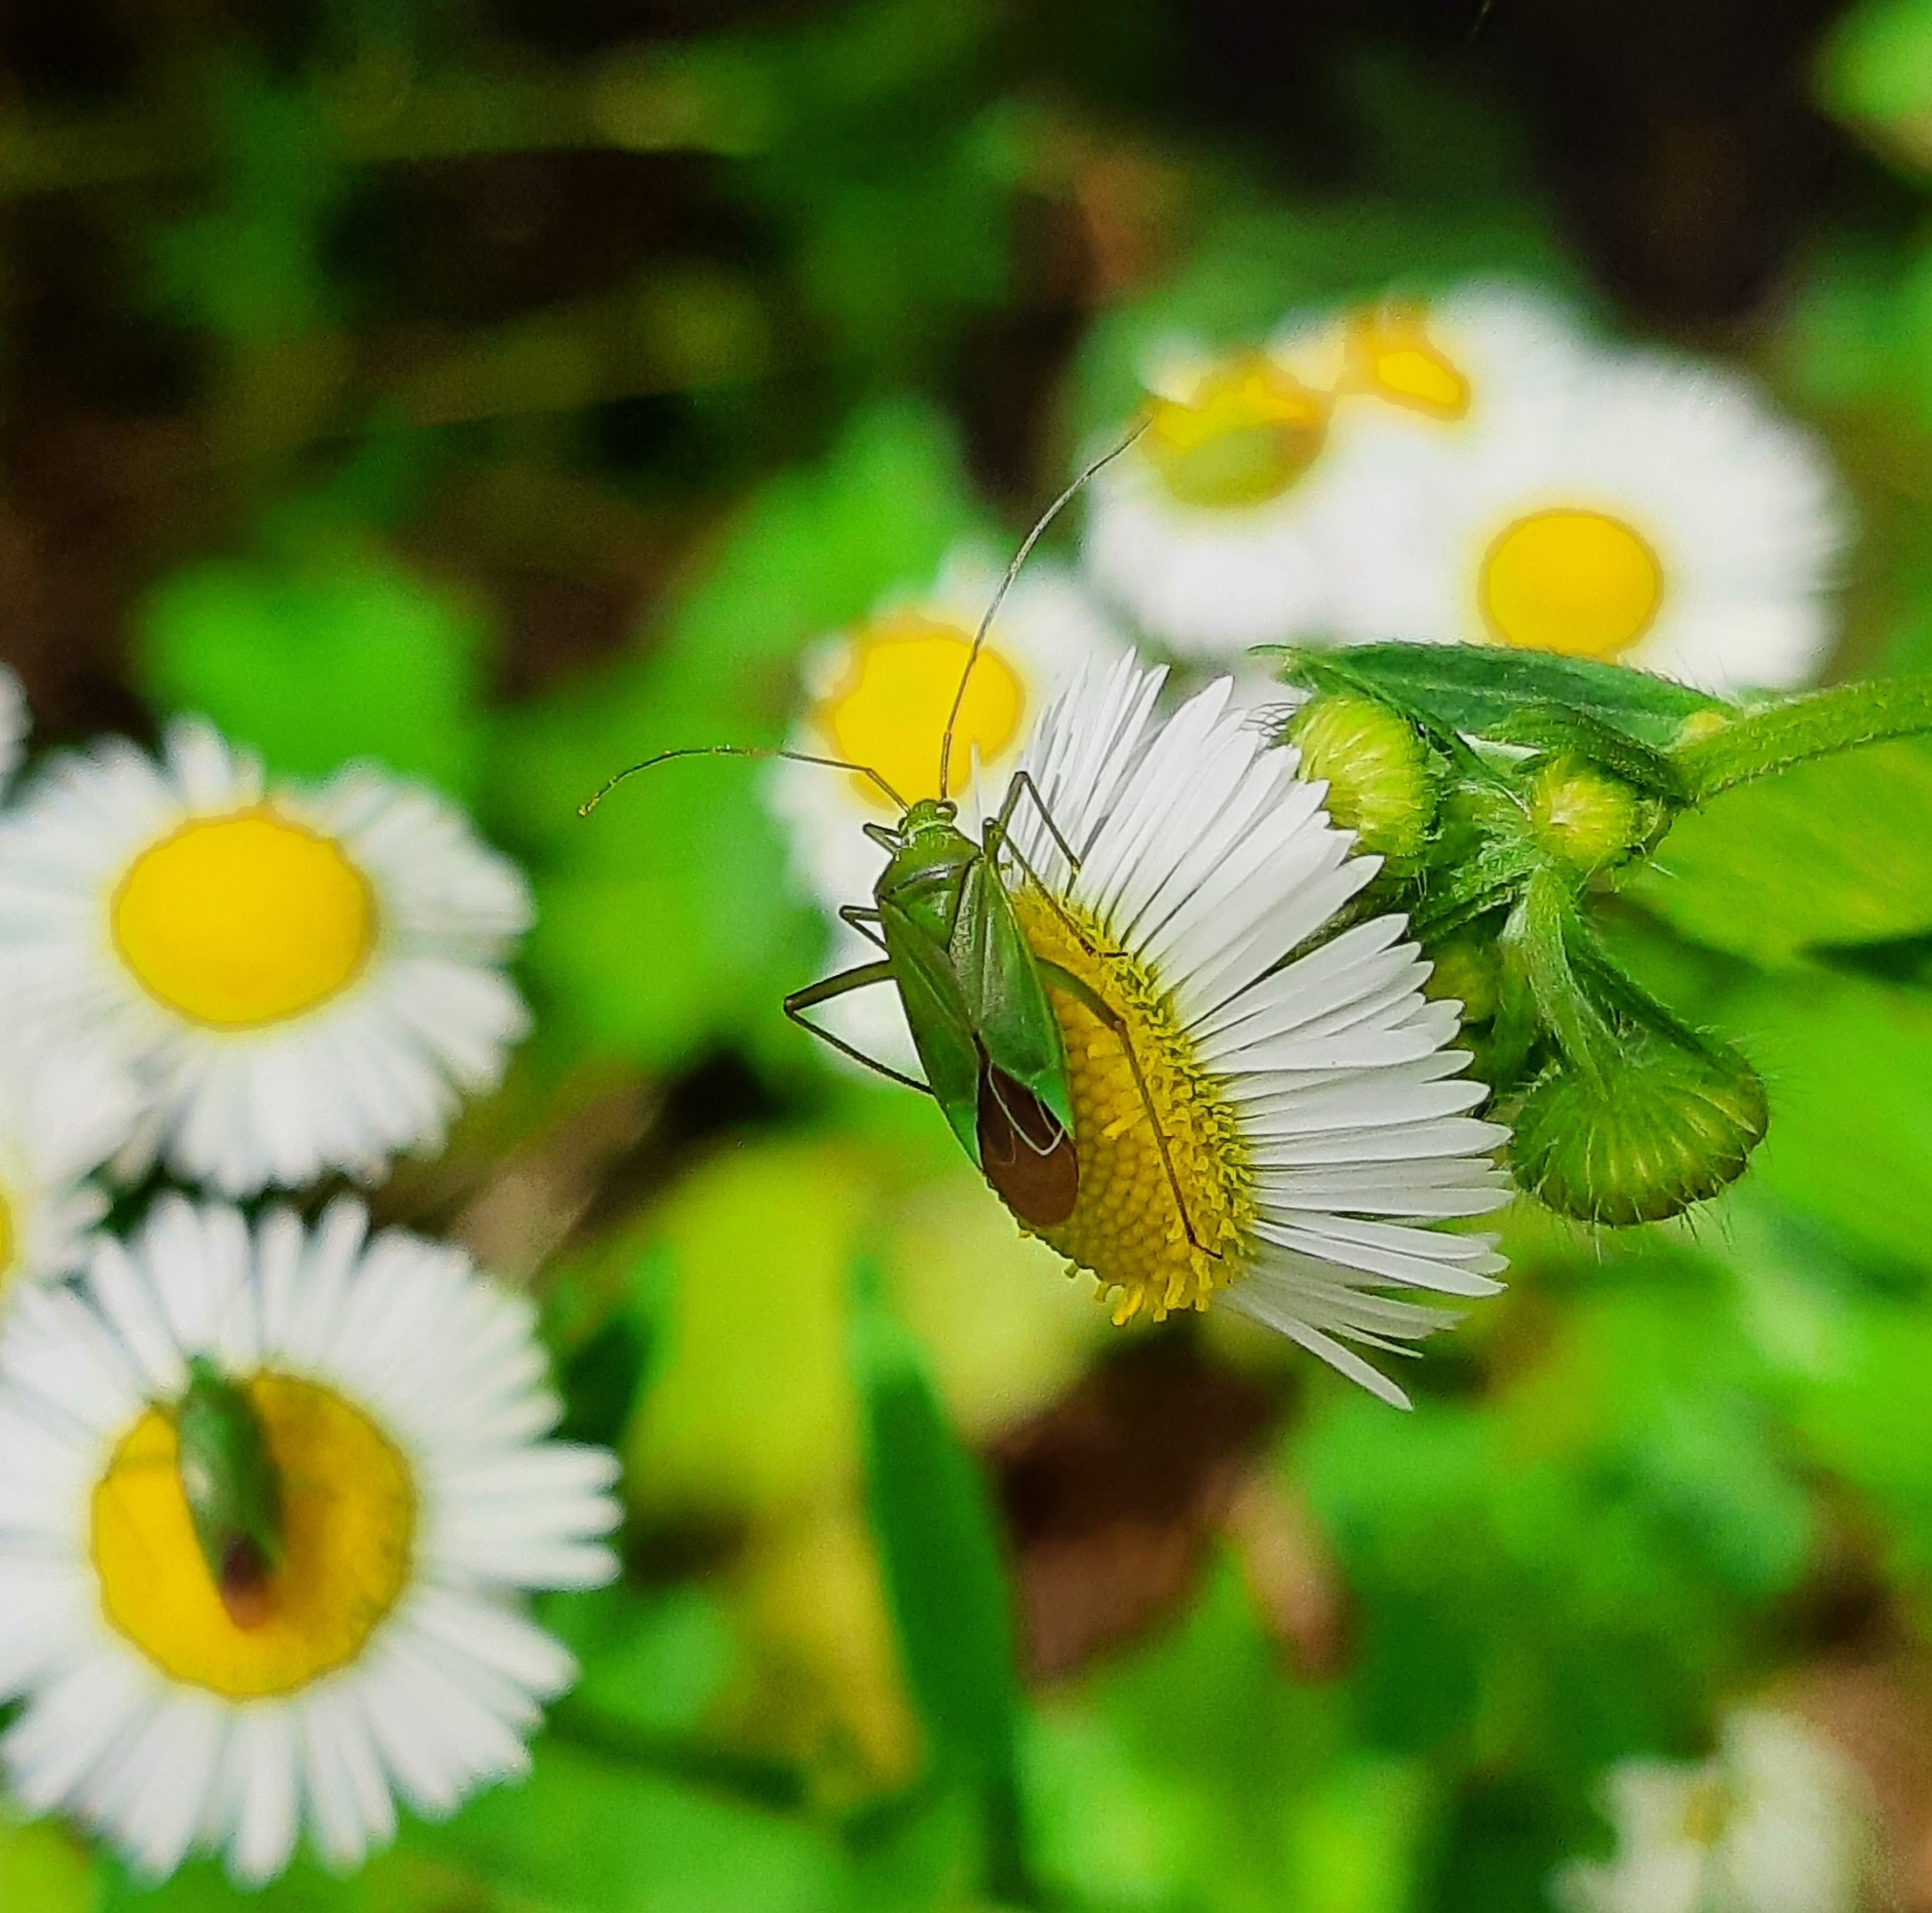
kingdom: Animalia
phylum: Arthropoda
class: Insecta
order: Hemiptera
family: Miridae
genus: Calocoris
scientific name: Calocoris affinis
